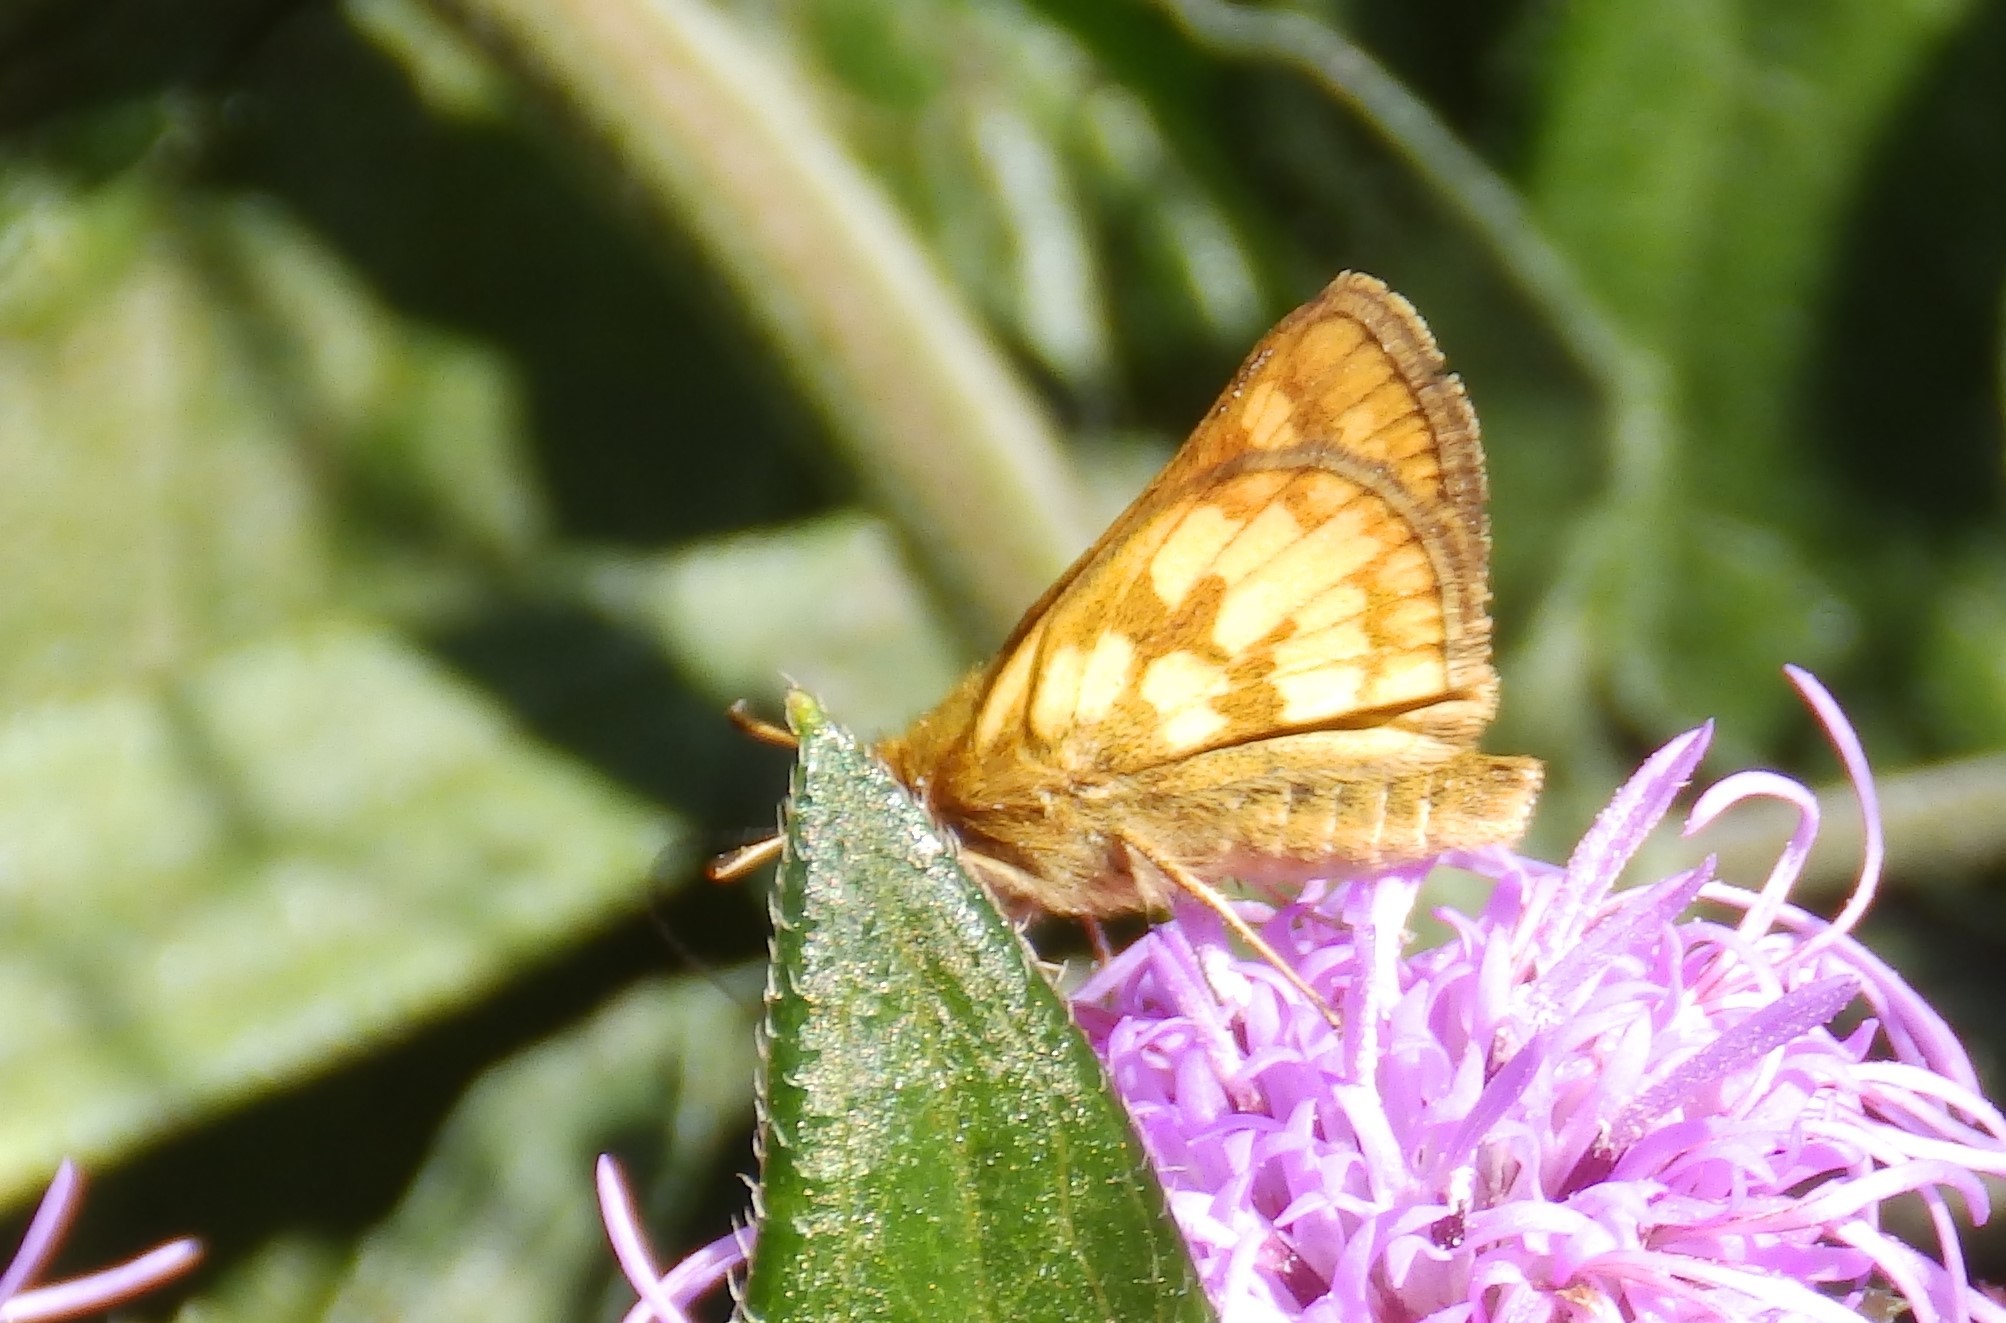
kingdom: Animalia
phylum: Arthropoda
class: Insecta
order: Lepidoptera
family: Hesperiidae
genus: Polites
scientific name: Polites coras
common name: Peck's skipper
